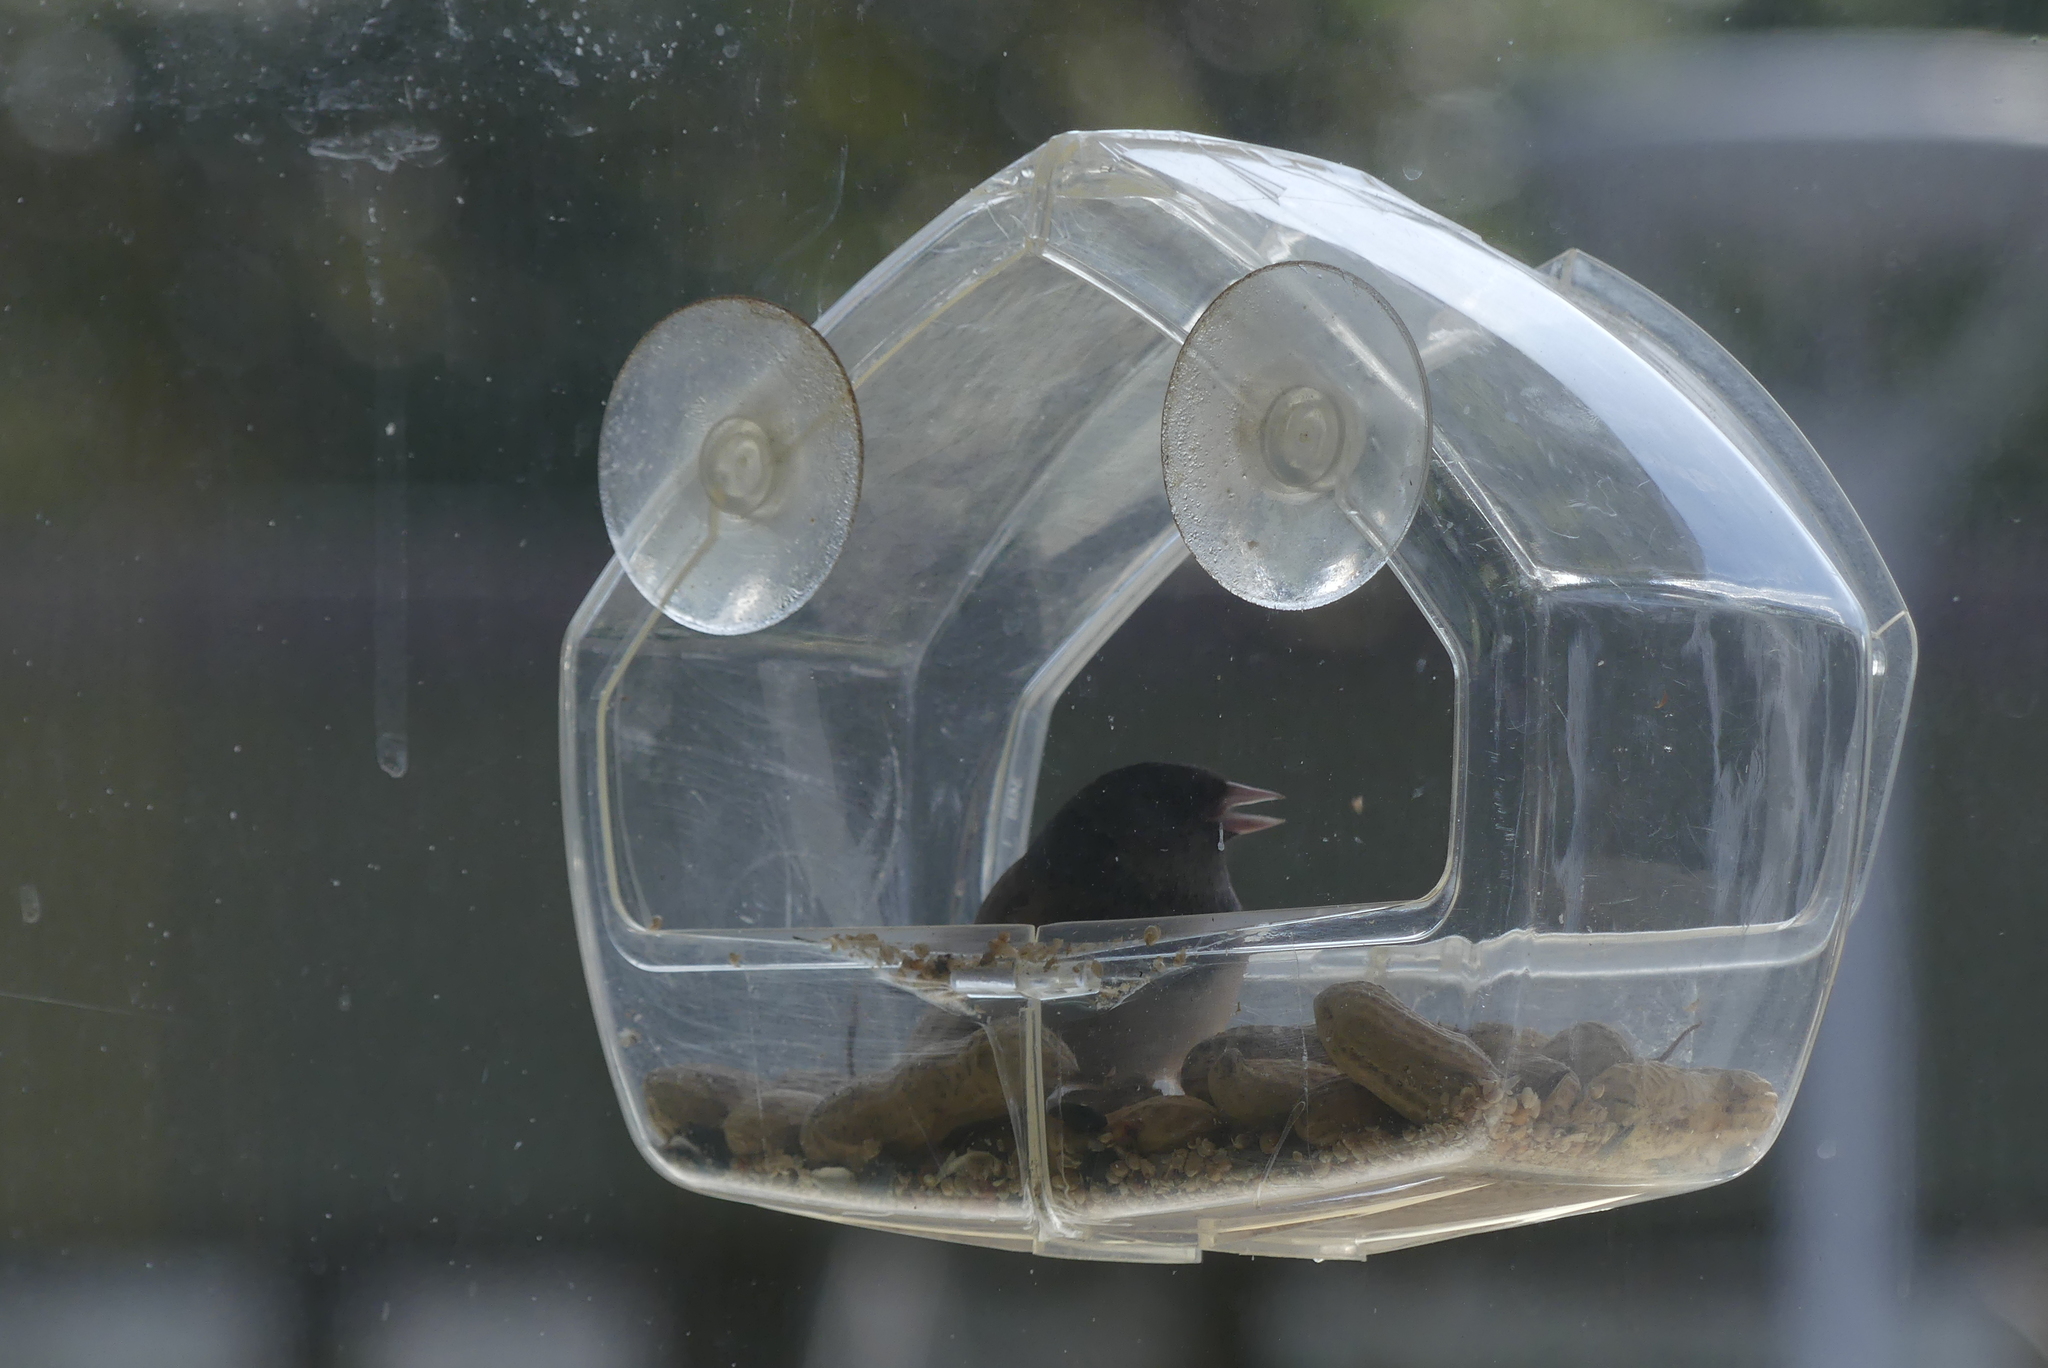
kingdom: Animalia
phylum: Chordata
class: Aves
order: Passeriformes
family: Passerellidae
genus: Junco
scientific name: Junco hyemalis
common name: Dark-eyed junco
